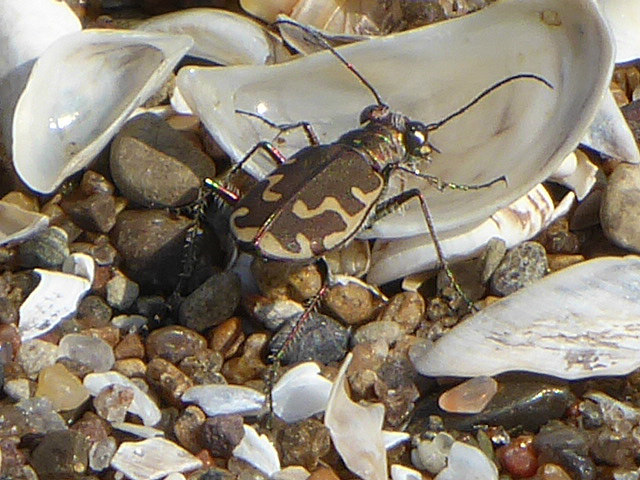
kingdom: Animalia
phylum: Arthropoda
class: Insecta
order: Coleoptera
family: Carabidae
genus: Cicindela
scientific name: Cicindela repanda
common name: Bronzed tiger beetle
